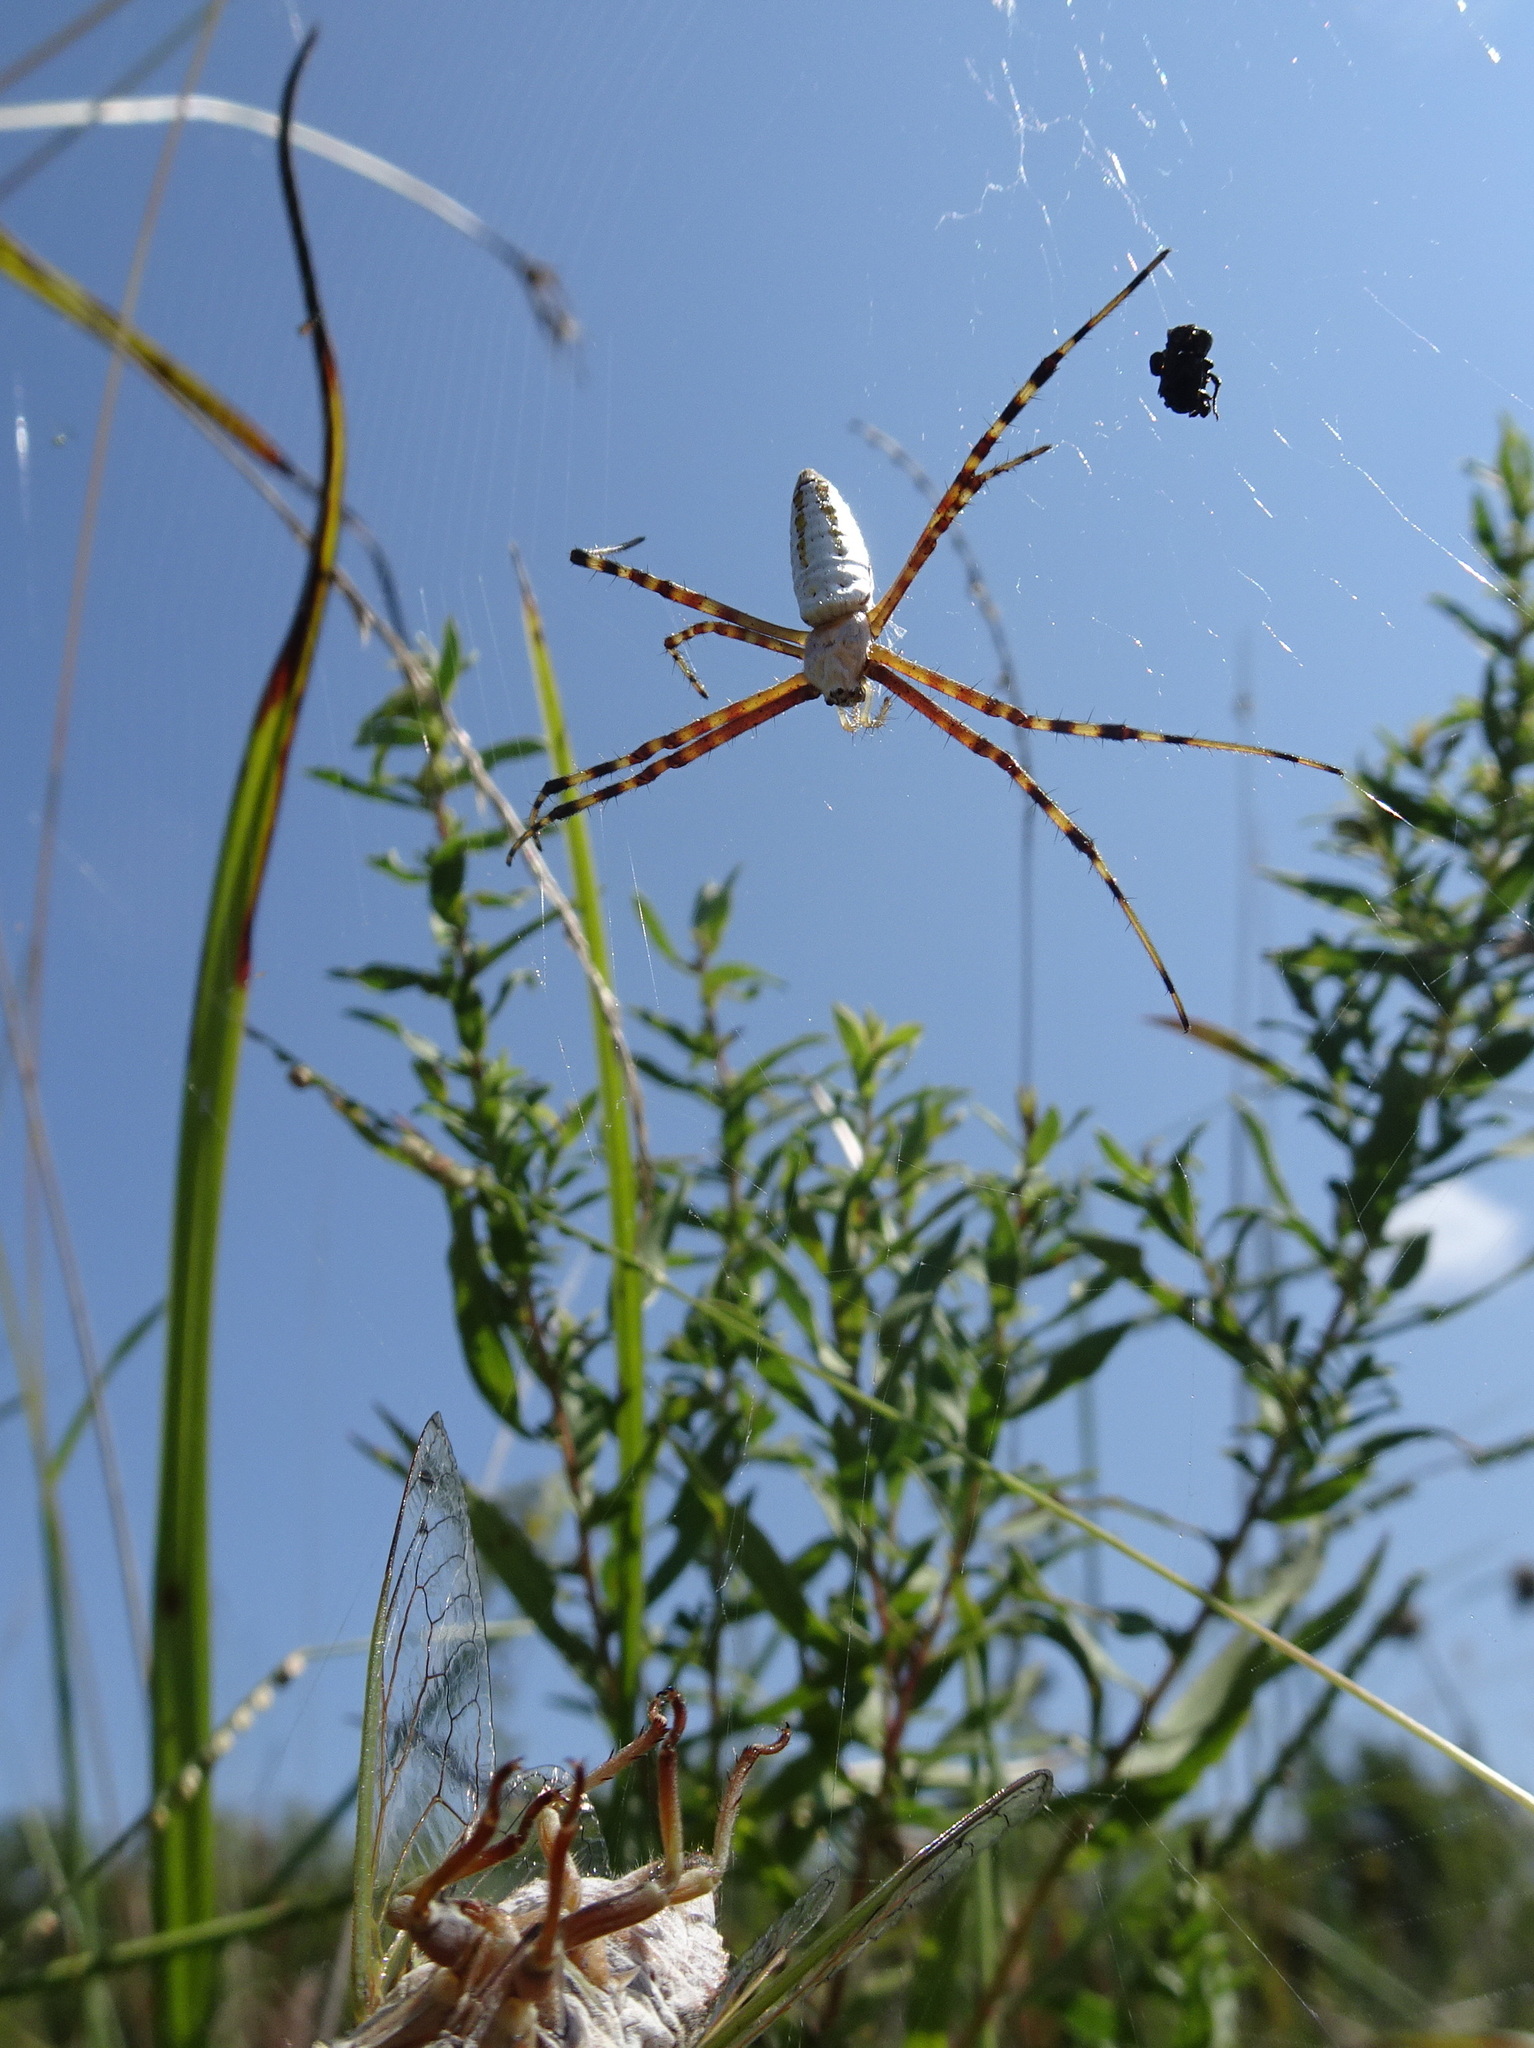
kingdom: Animalia
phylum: Arthropoda
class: Arachnida
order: Araneae
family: Araneidae
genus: Argiope
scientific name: Argiope trifasciata
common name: Banded garden spider
